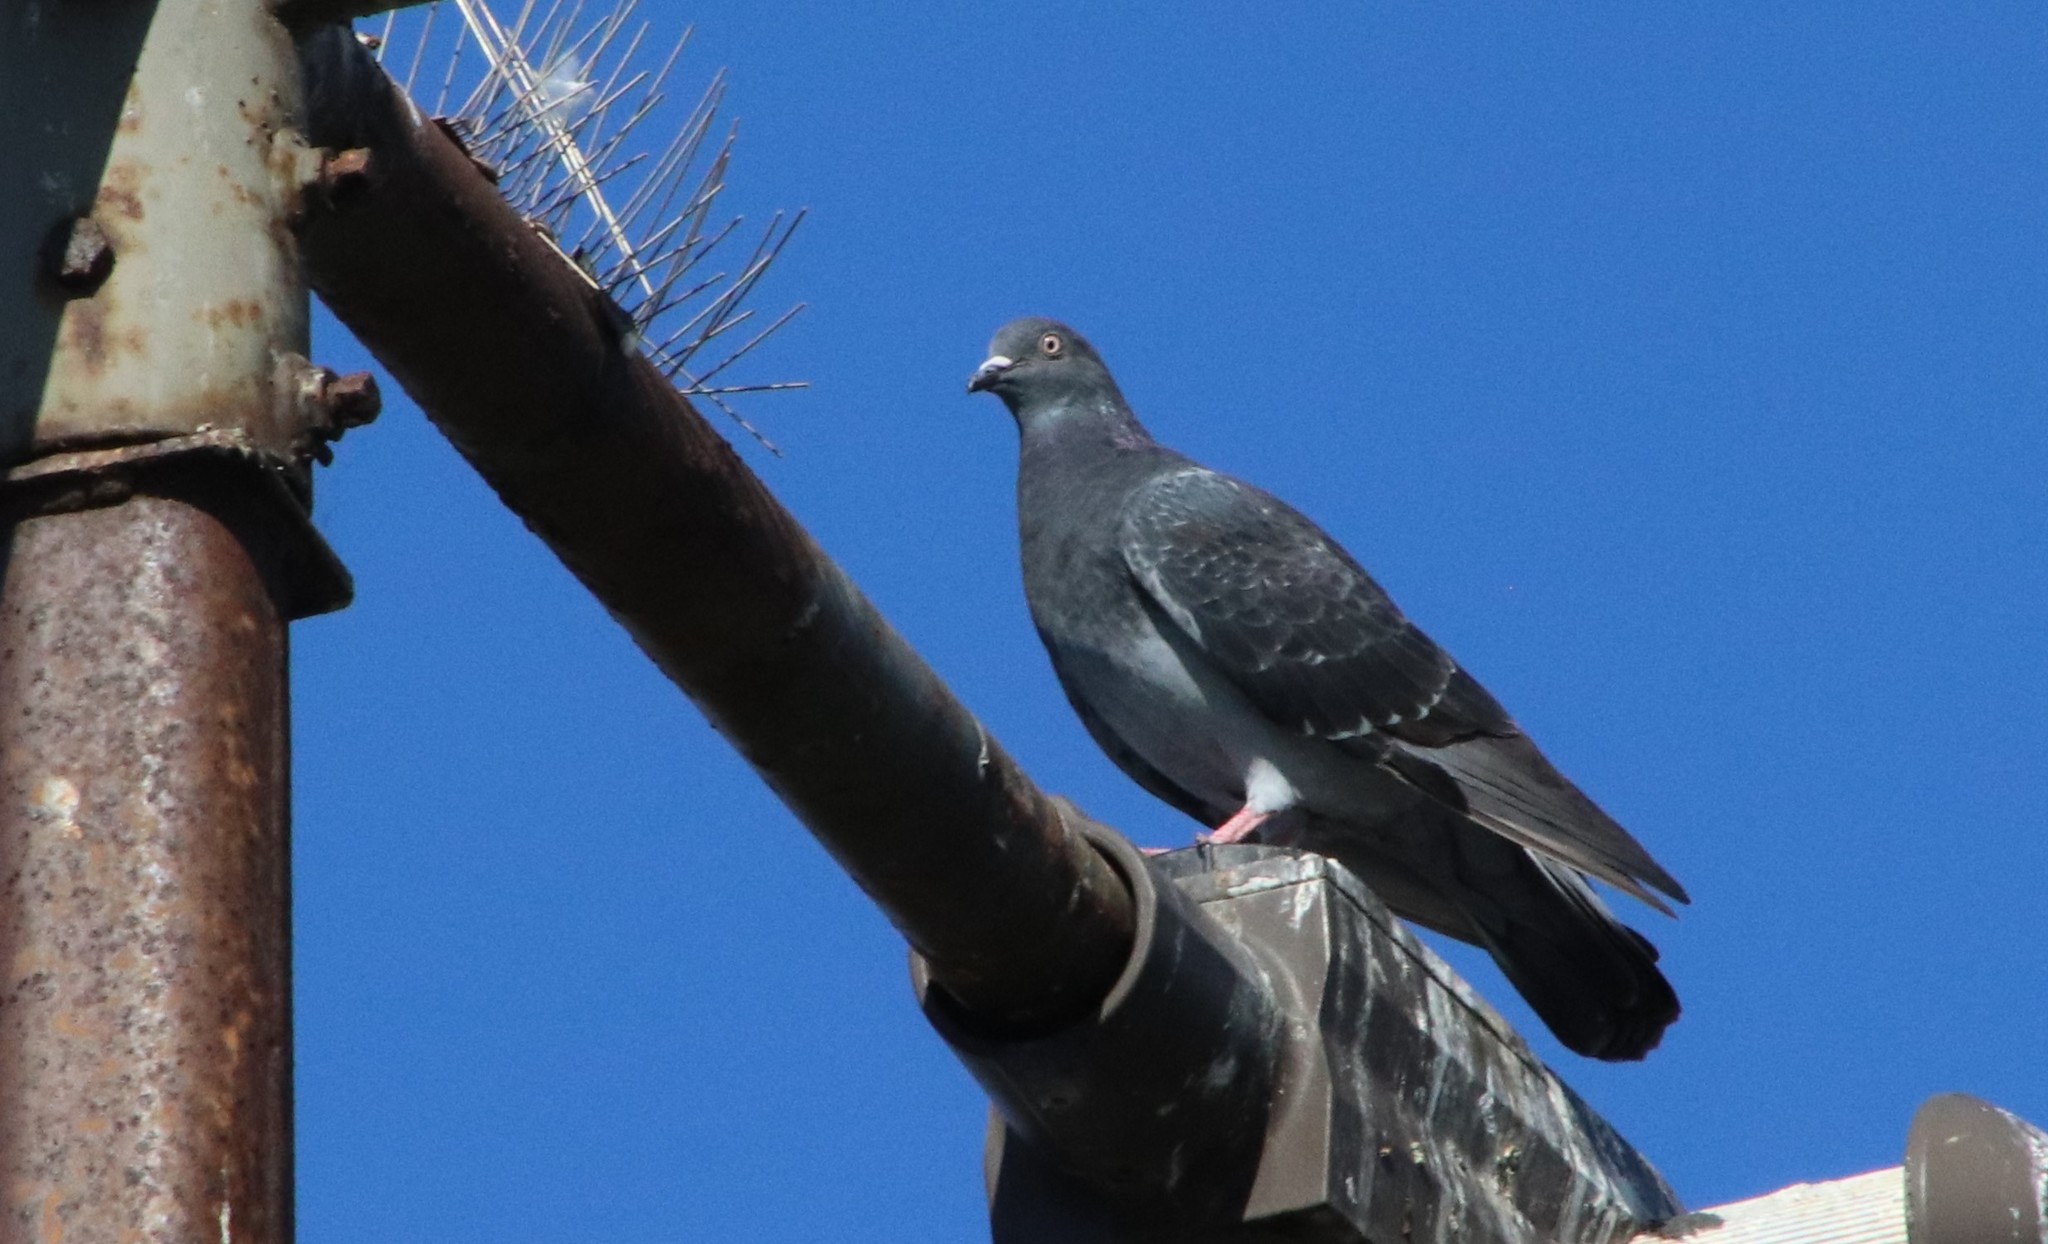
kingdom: Animalia
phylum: Chordata
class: Aves
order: Columbiformes
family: Columbidae
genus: Columba
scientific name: Columba livia
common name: Rock pigeon
